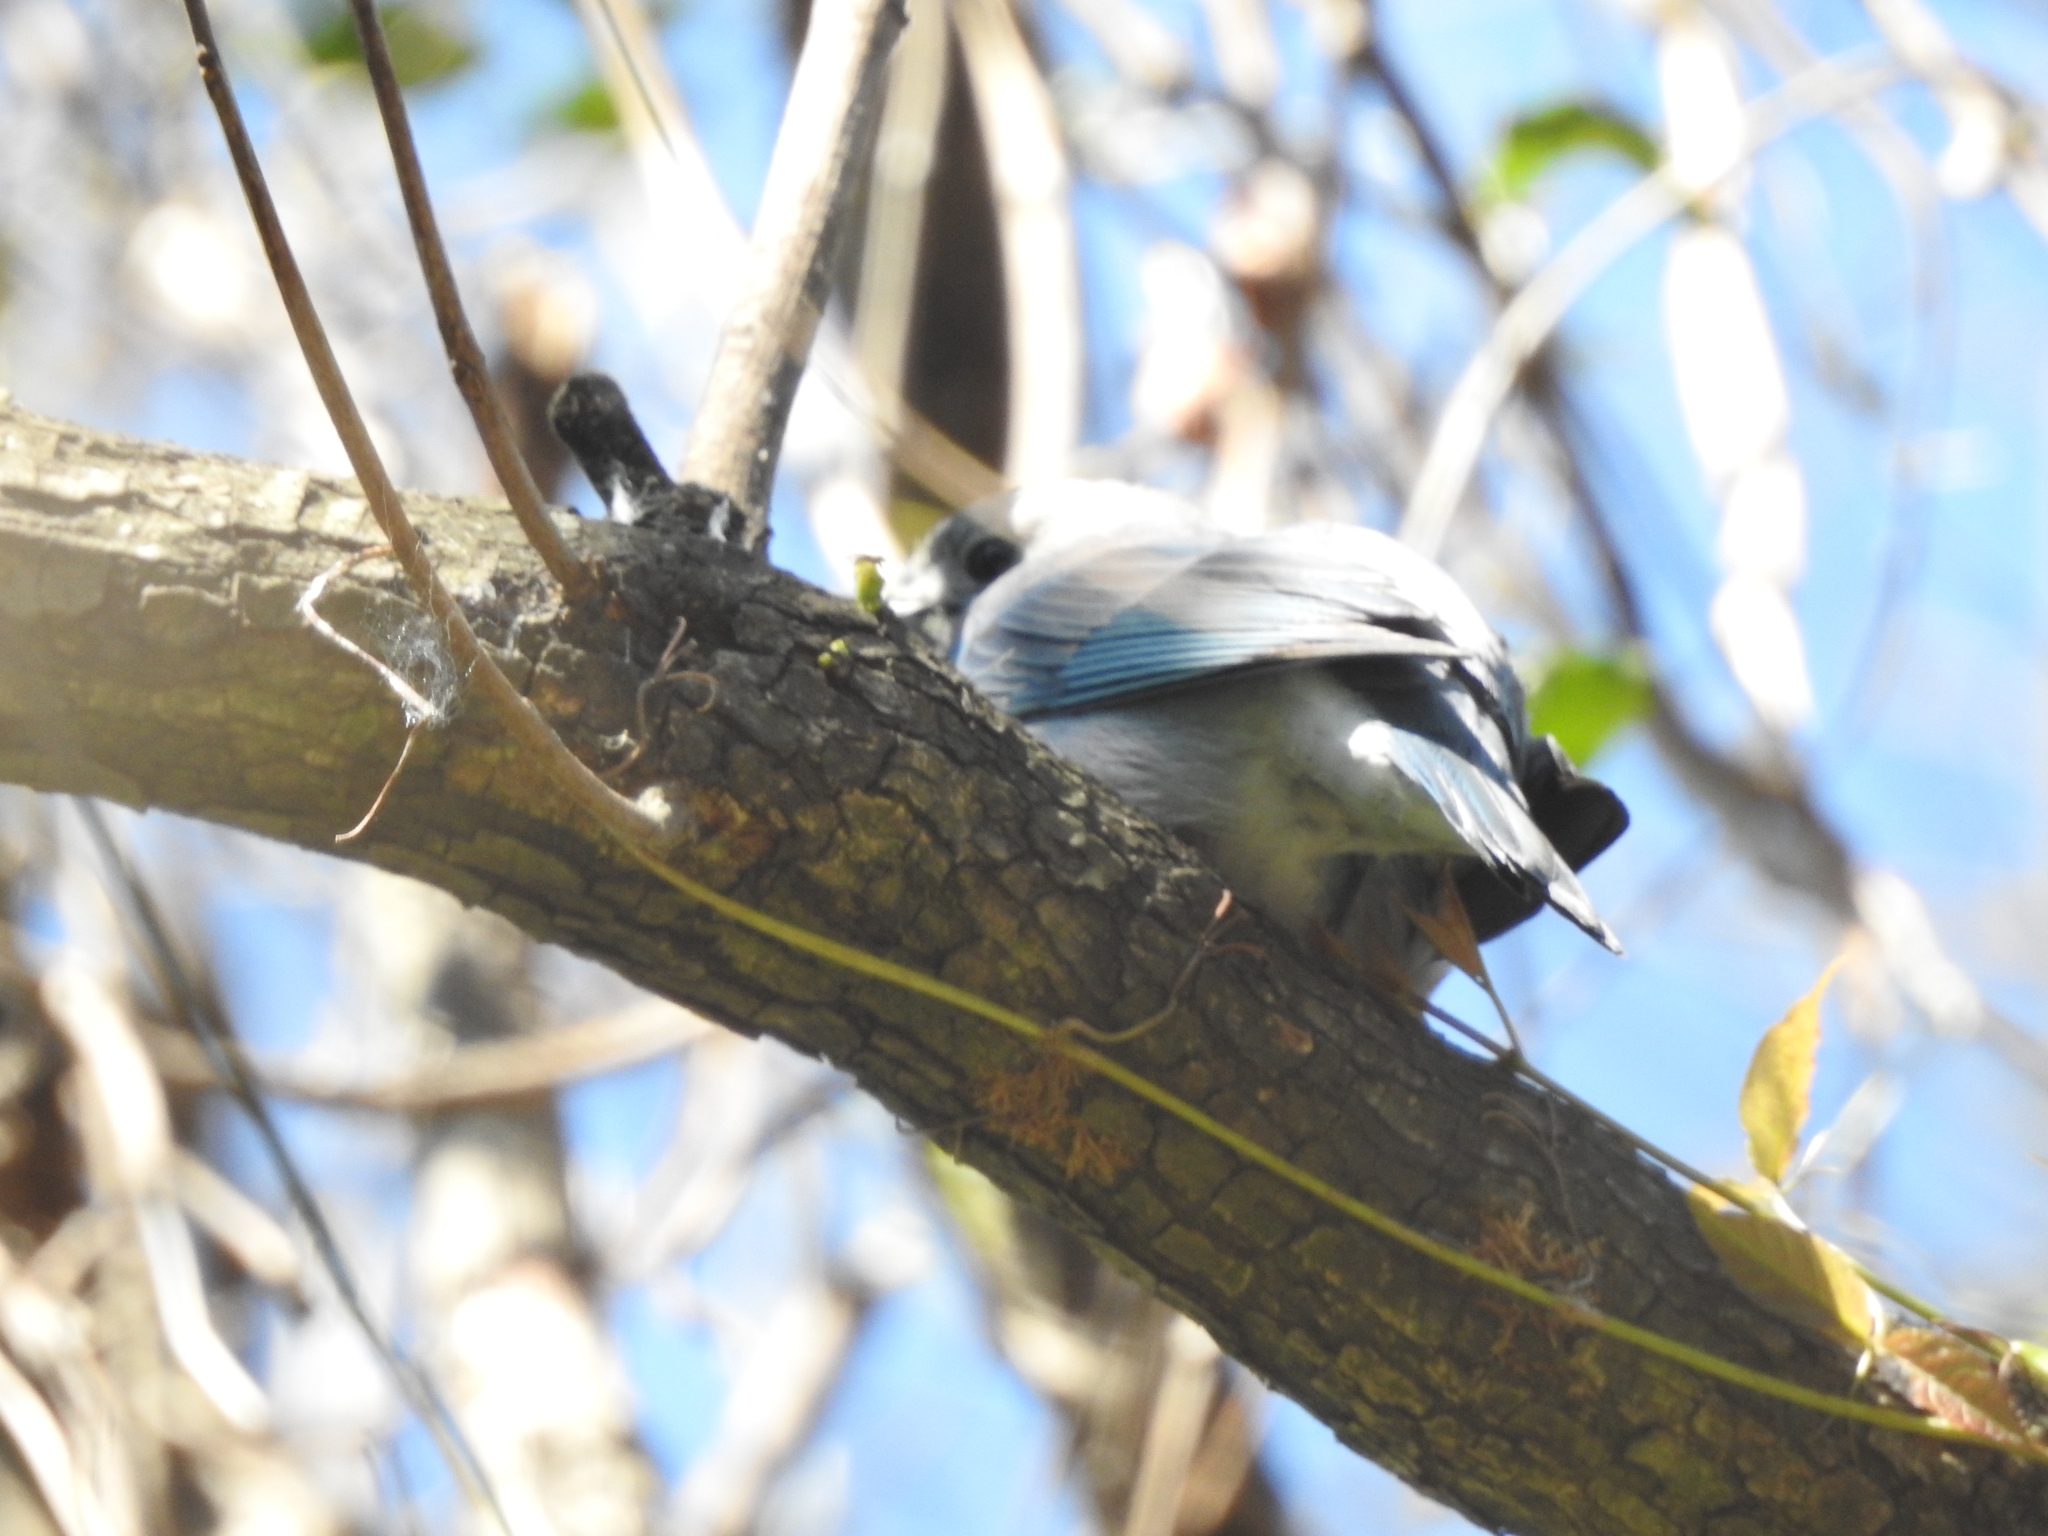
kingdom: Animalia
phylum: Chordata
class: Aves
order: Passeriformes
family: Thraupidae
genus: Thraupis
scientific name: Thraupis sayaca
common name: Sayaca tanager
